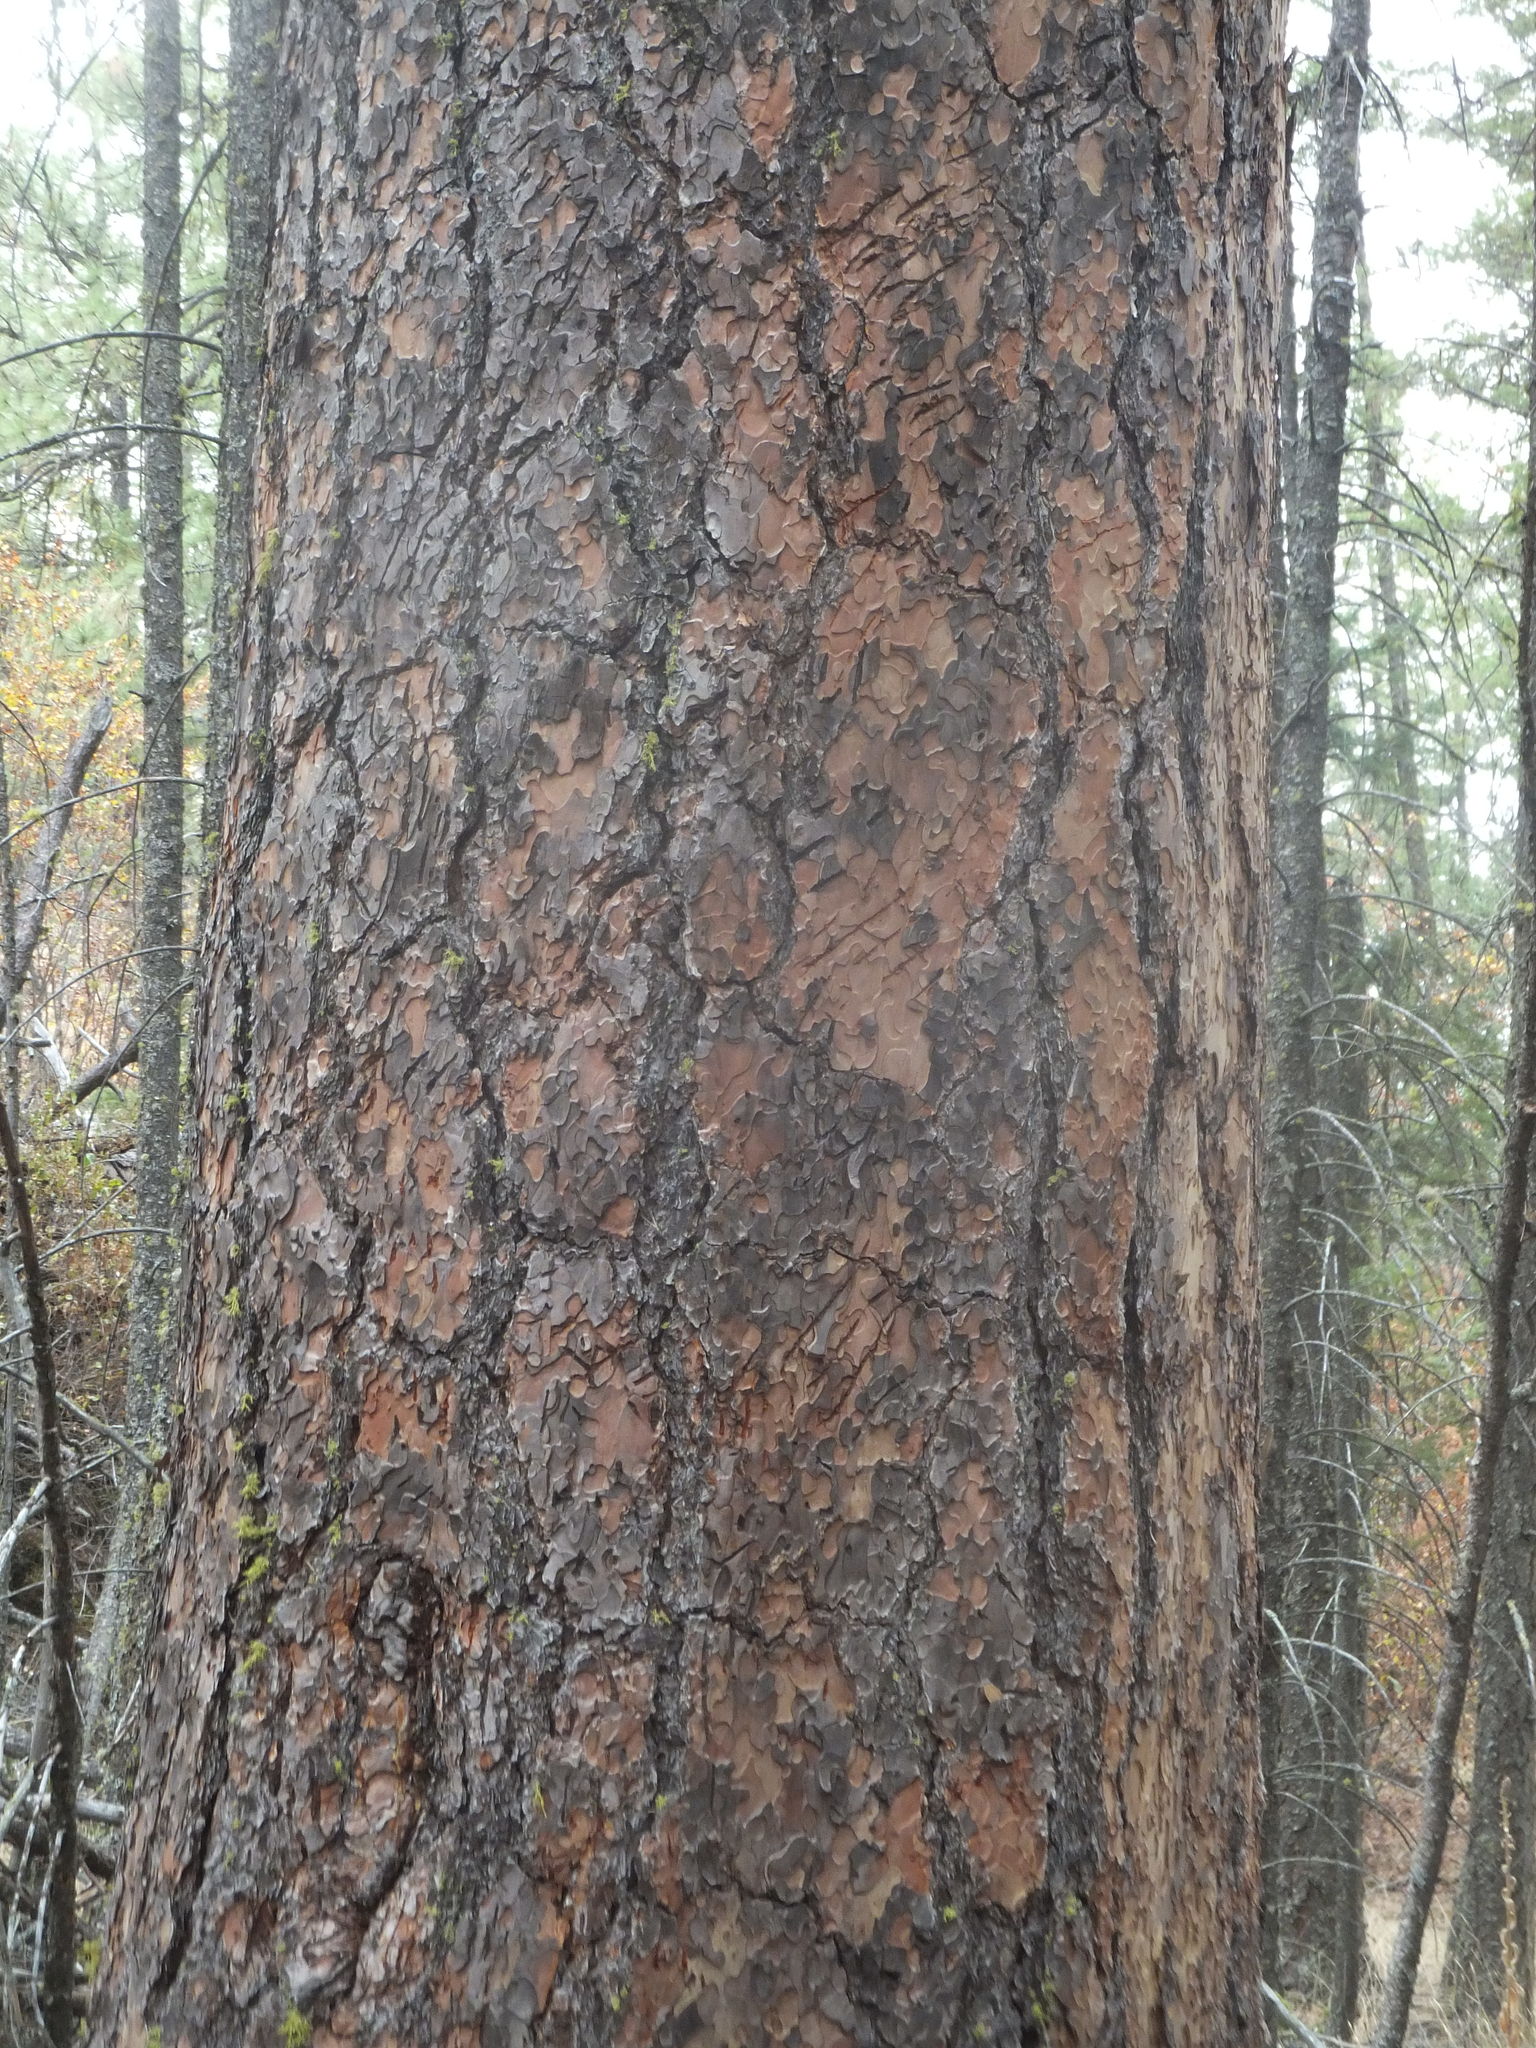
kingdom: Plantae
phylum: Tracheophyta
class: Pinopsida
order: Pinales
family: Pinaceae
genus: Pinus
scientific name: Pinus ponderosa
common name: Western yellow-pine
